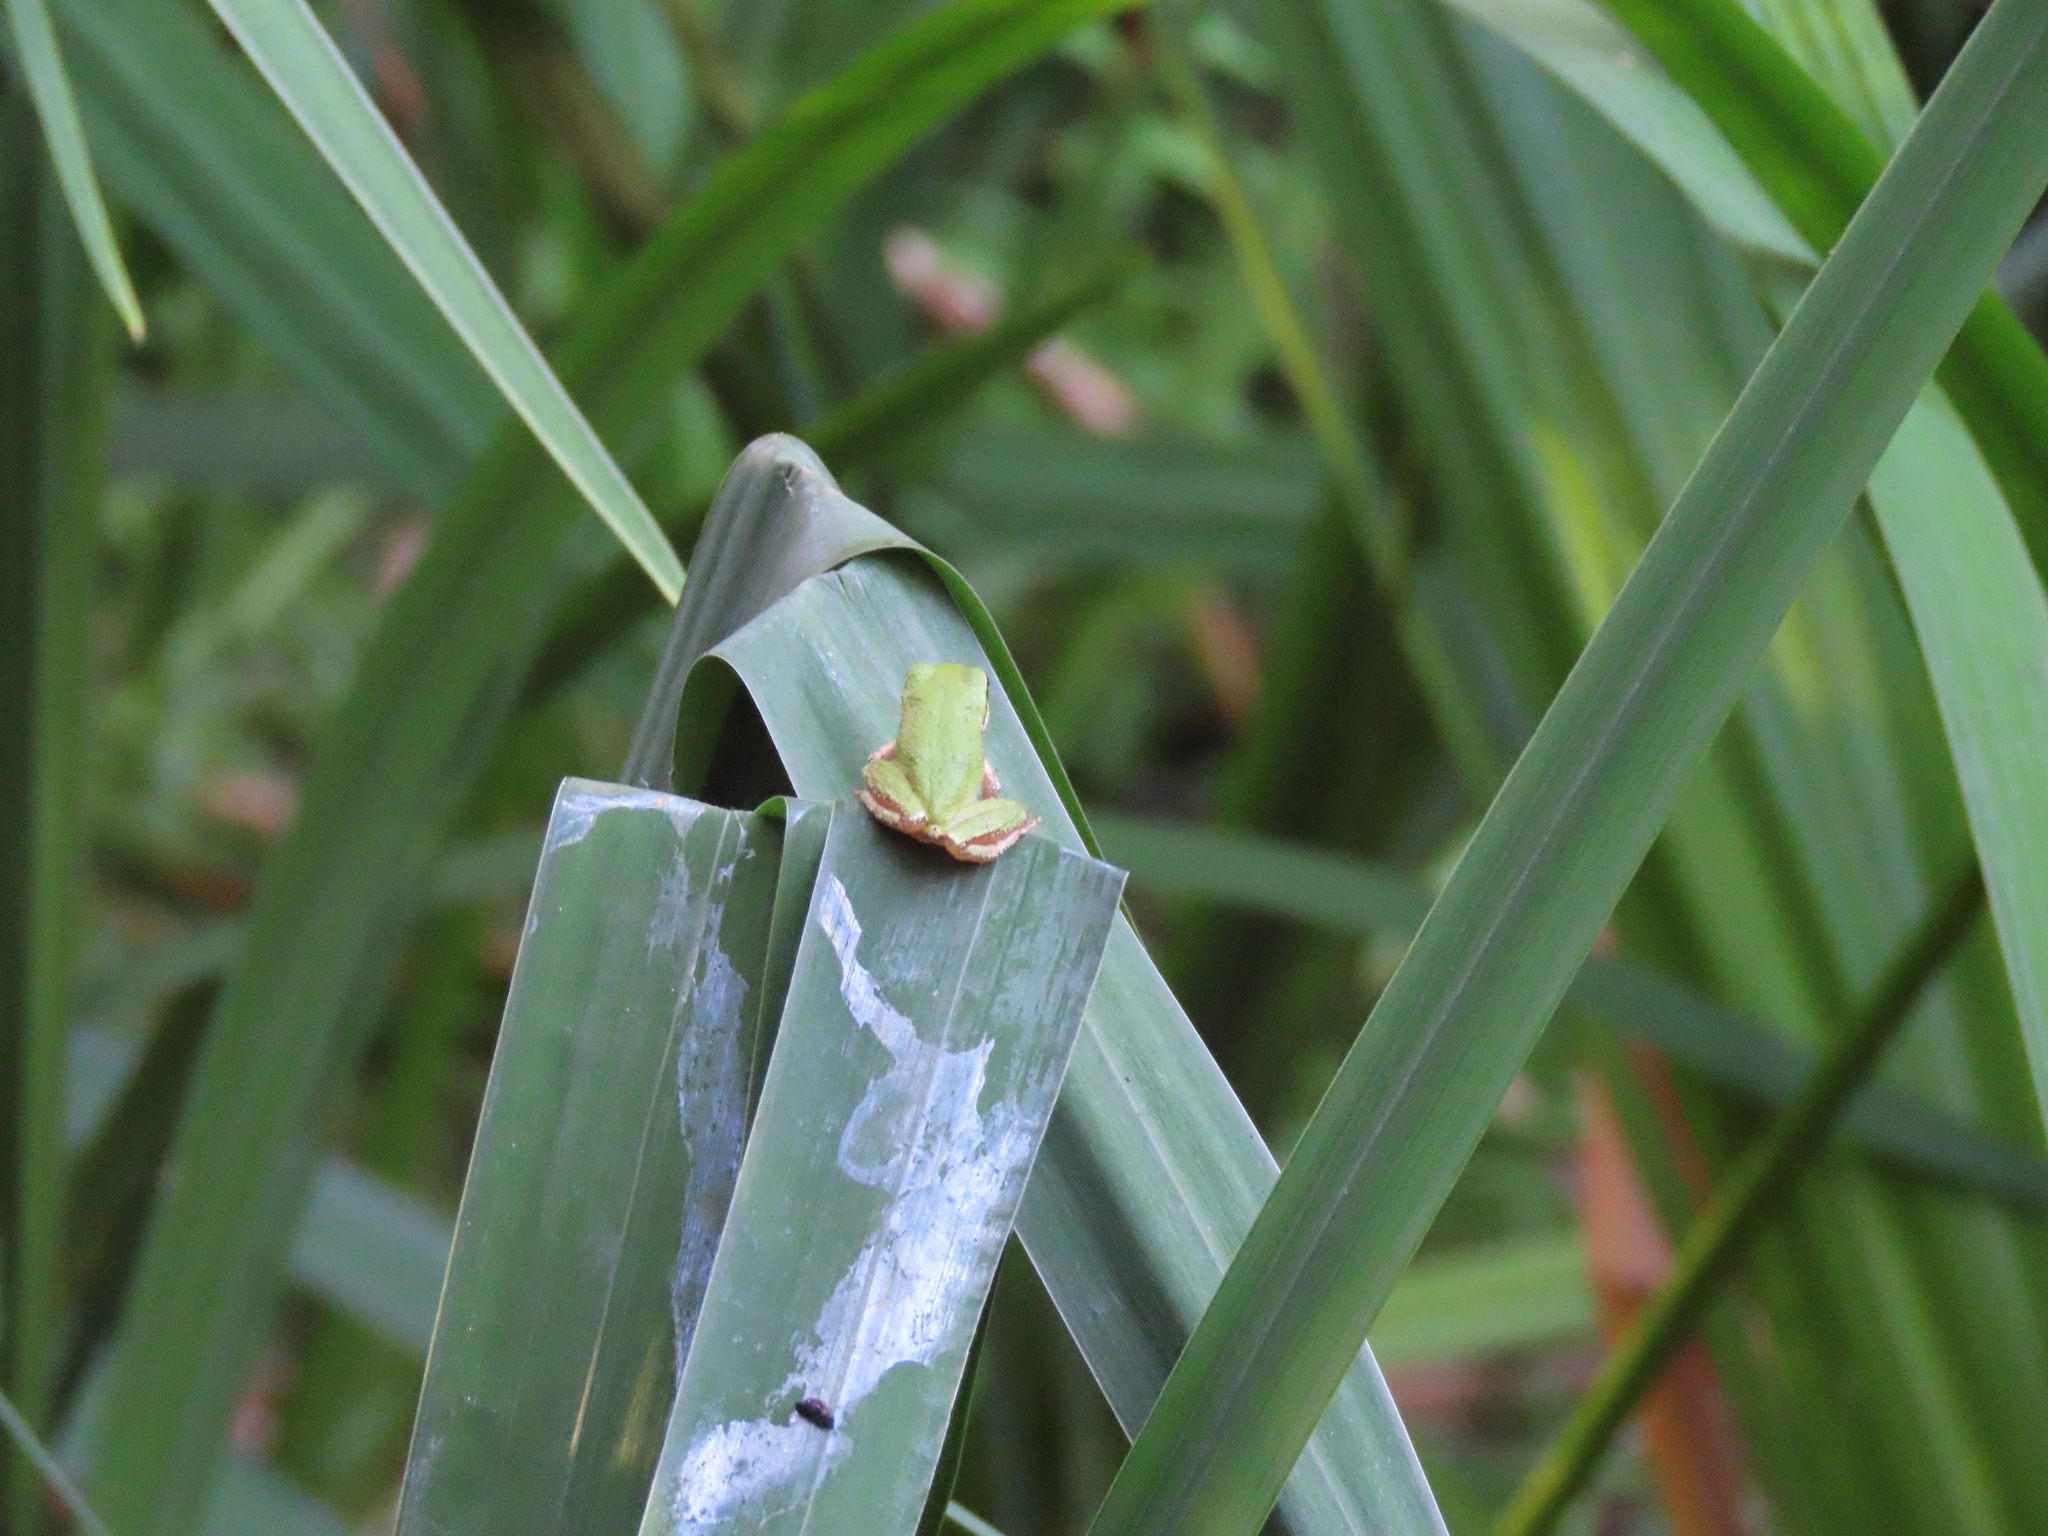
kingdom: Animalia
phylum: Chordata
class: Amphibia
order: Anura
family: Hylidae
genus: Pseudacris
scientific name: Pseudacris regilla
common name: Pacific chorus frog
